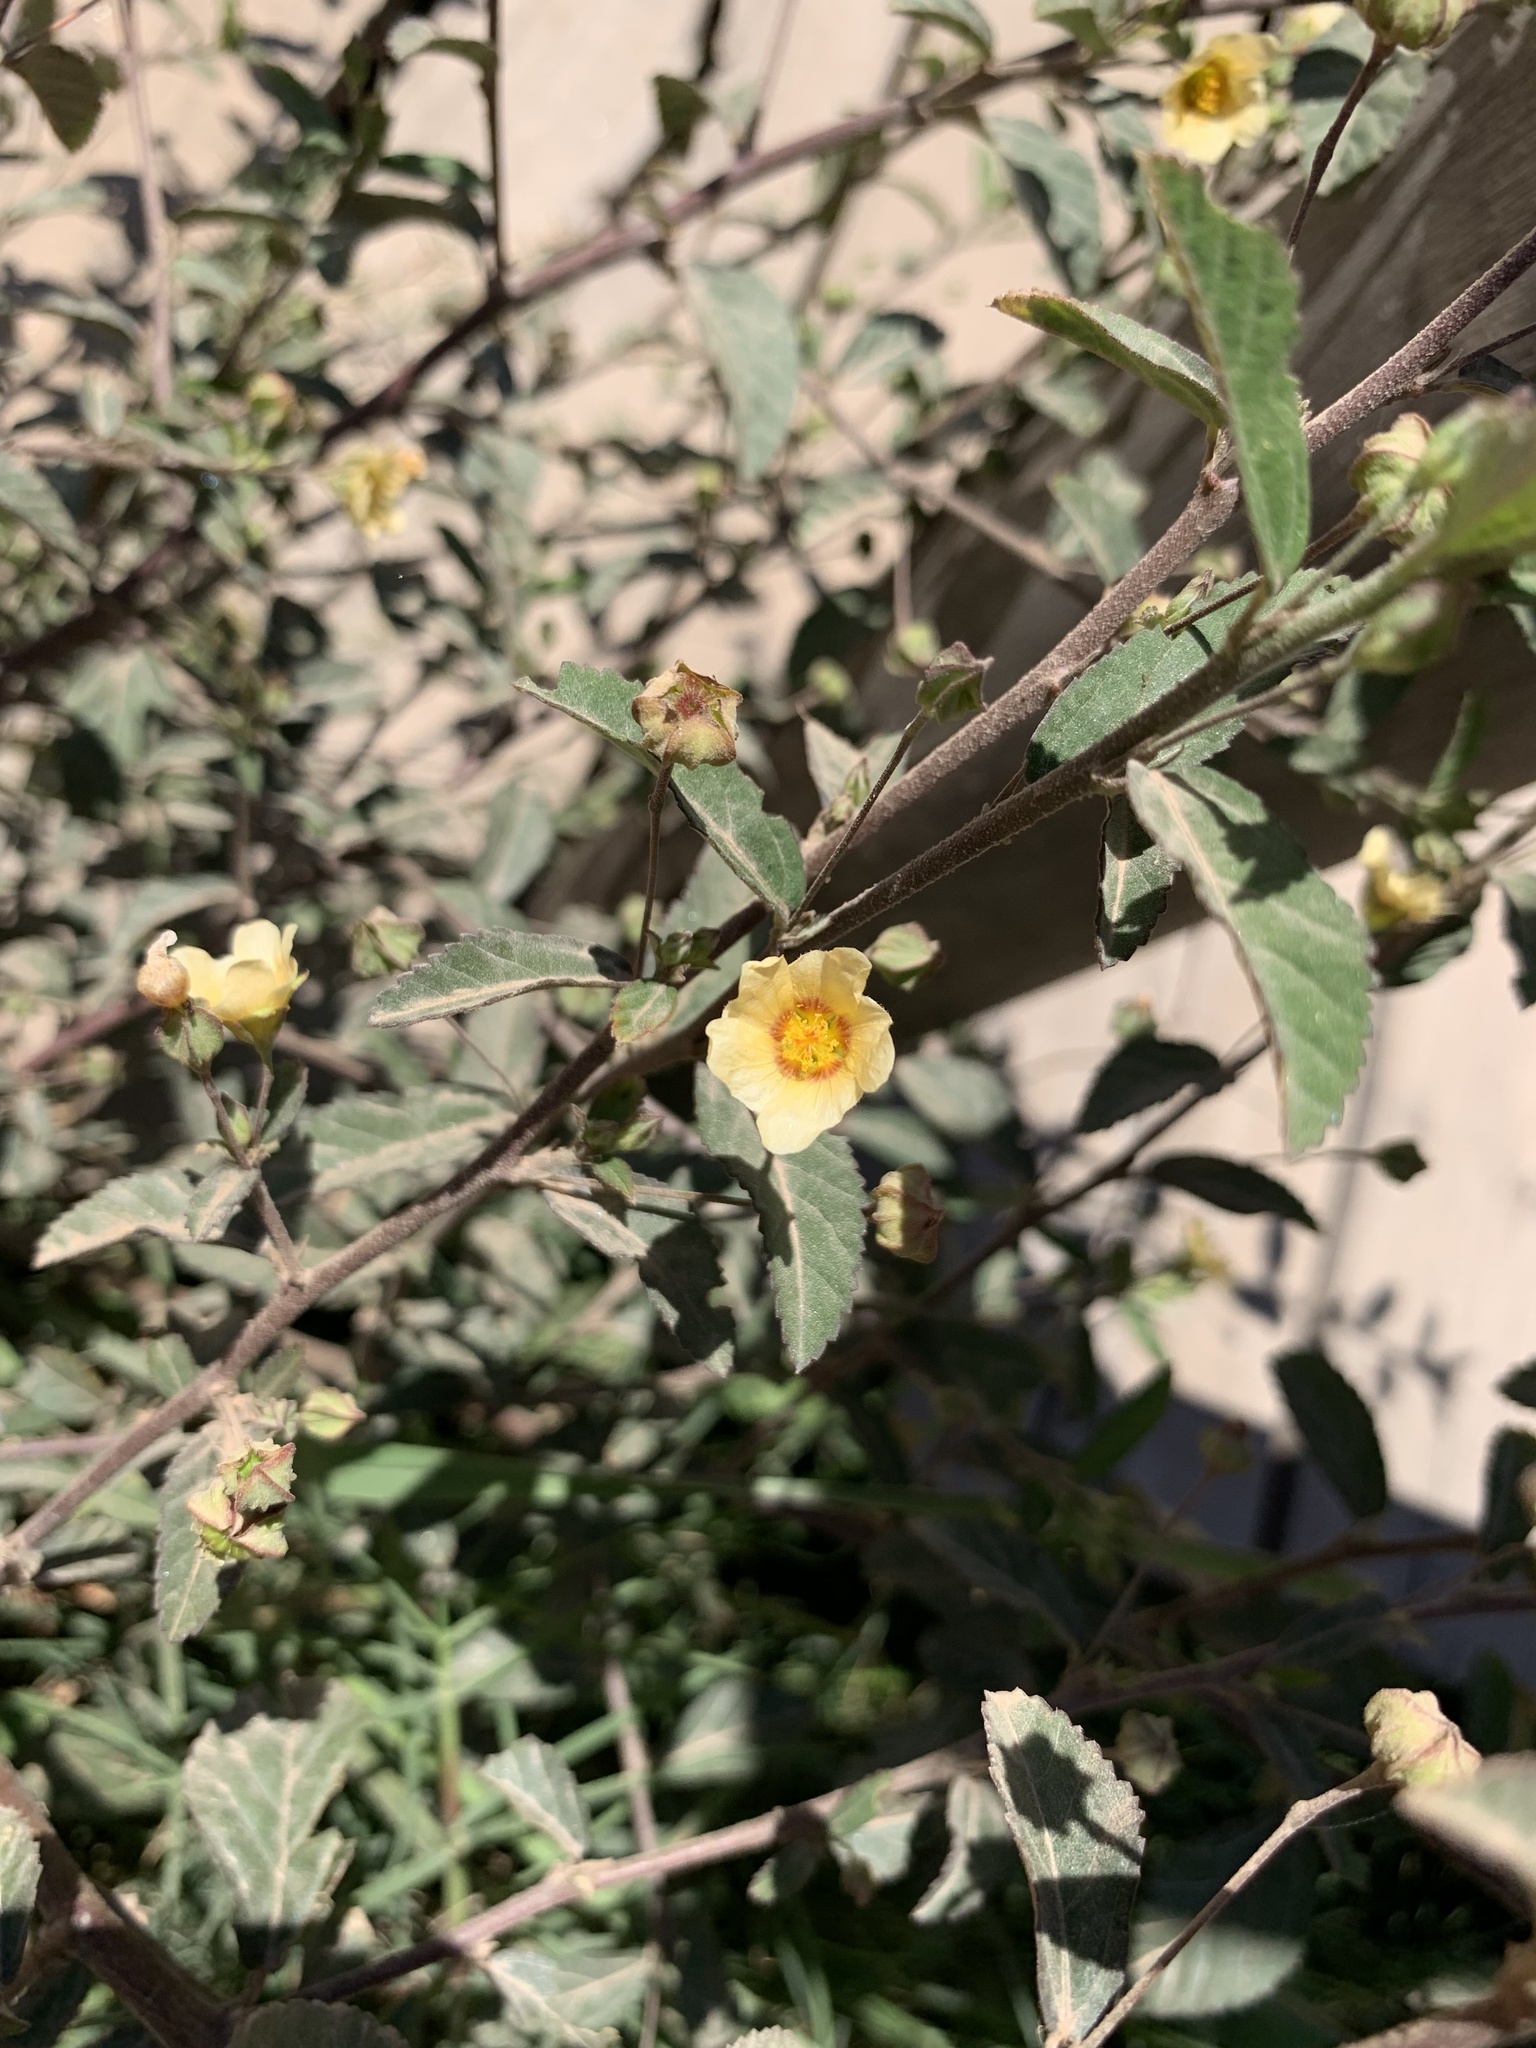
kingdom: Plantae
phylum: Tracheophyta
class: Magnoliopsida
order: Malvales
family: Malvaceae
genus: Sida
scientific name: Sida spinosa
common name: Prickly fanpetals
